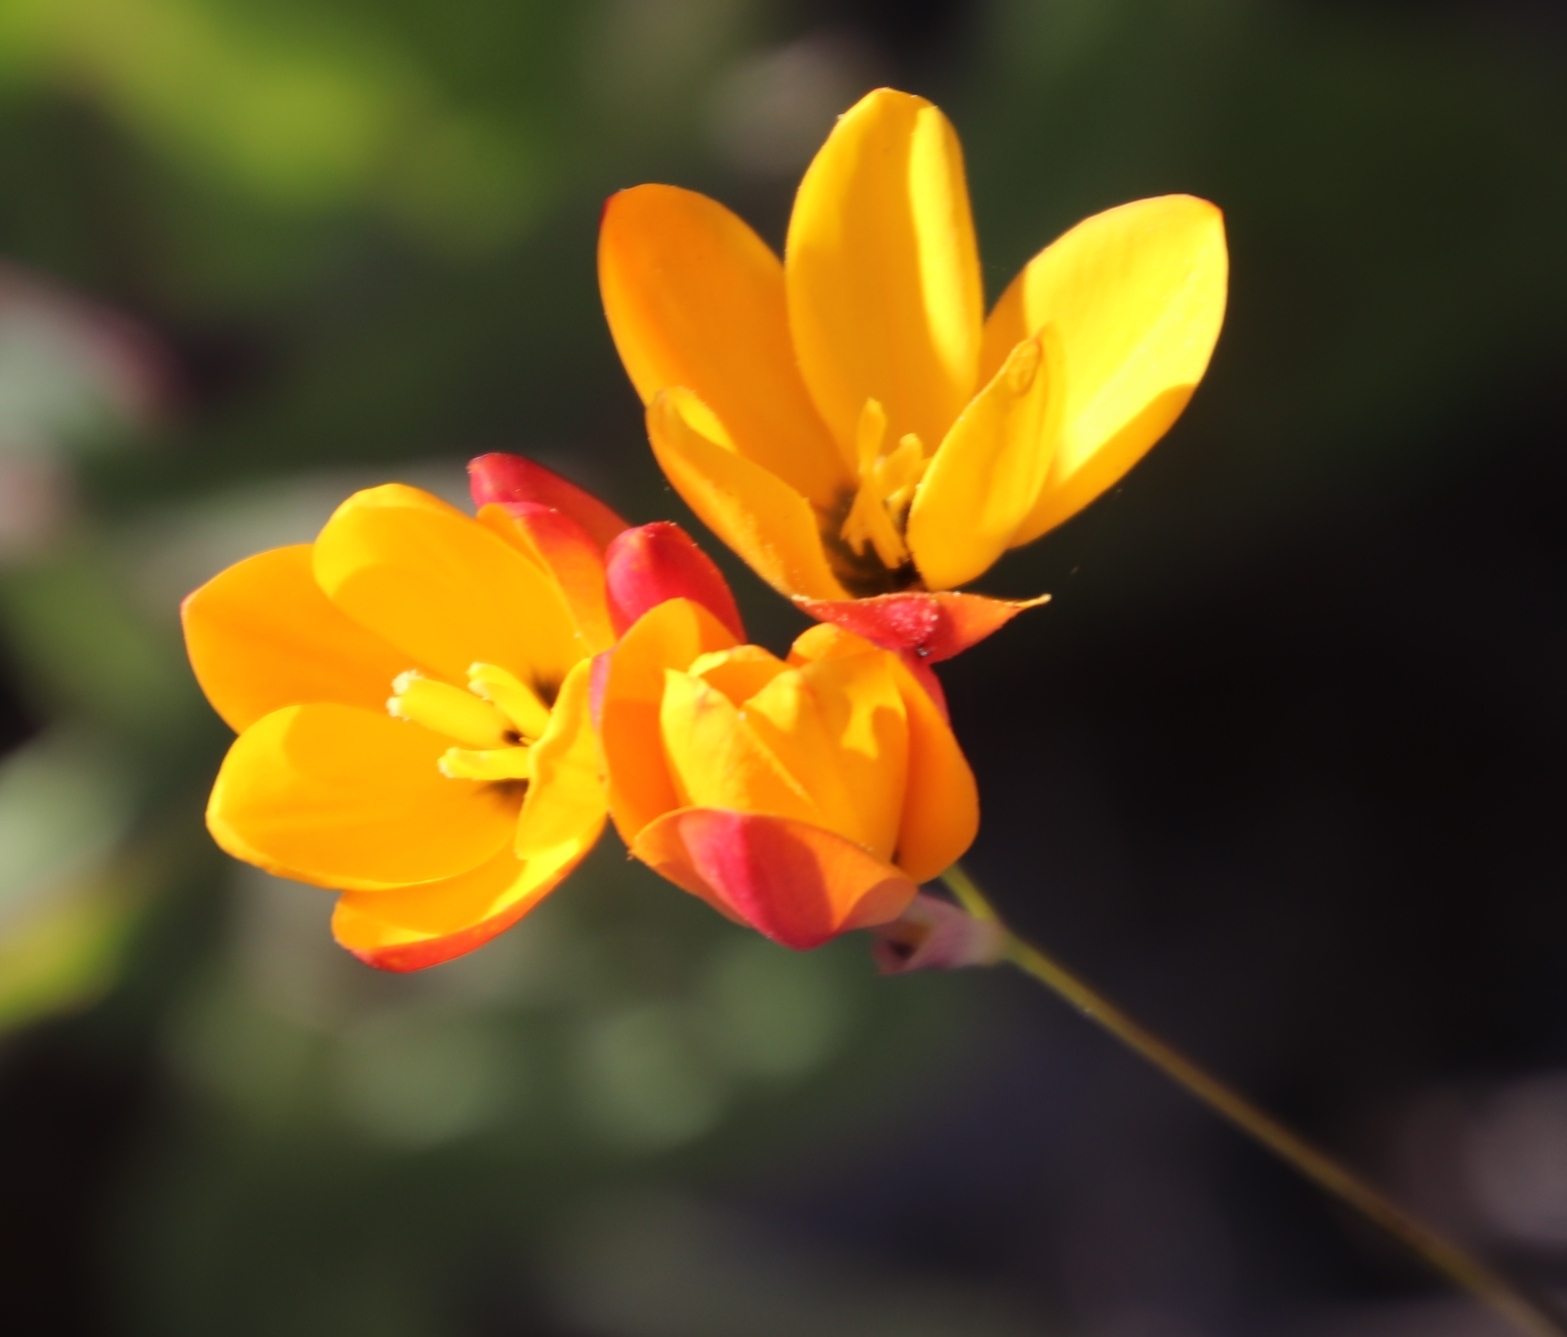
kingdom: Plantae
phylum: Tracheophyta
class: Liliopsida
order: Asparagales
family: Iridaceae
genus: Ixia
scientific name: Ixia dubia
